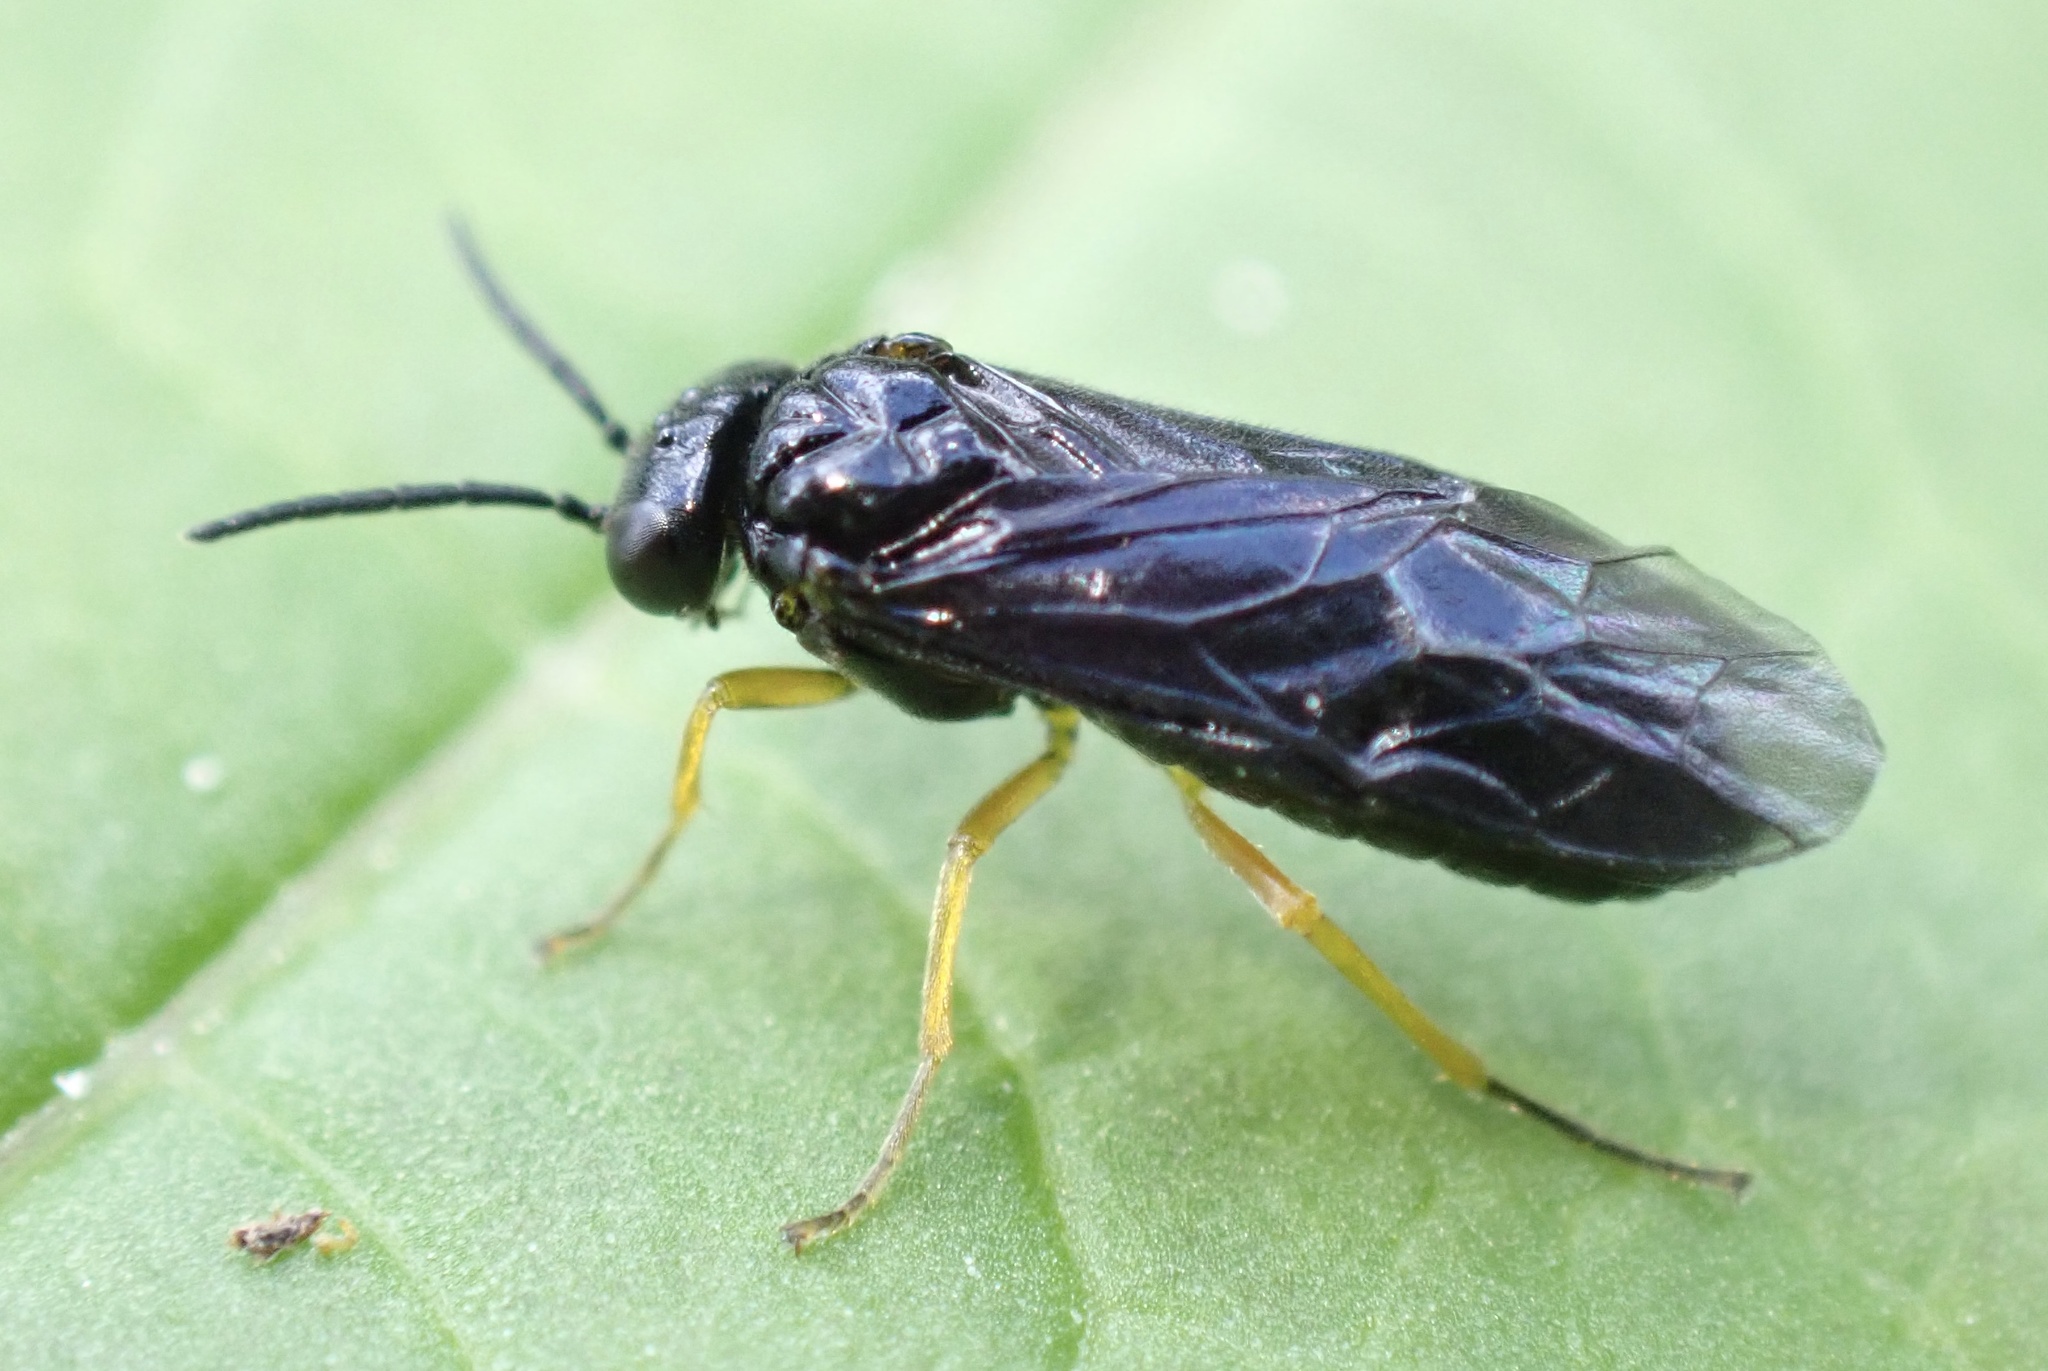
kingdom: Animalia
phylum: Arthropoda
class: Insecta
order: Hymenoptera
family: Tenthredinidae
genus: Nesoselandria
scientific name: Nesoselandria morio
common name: Tenthredid wasp
